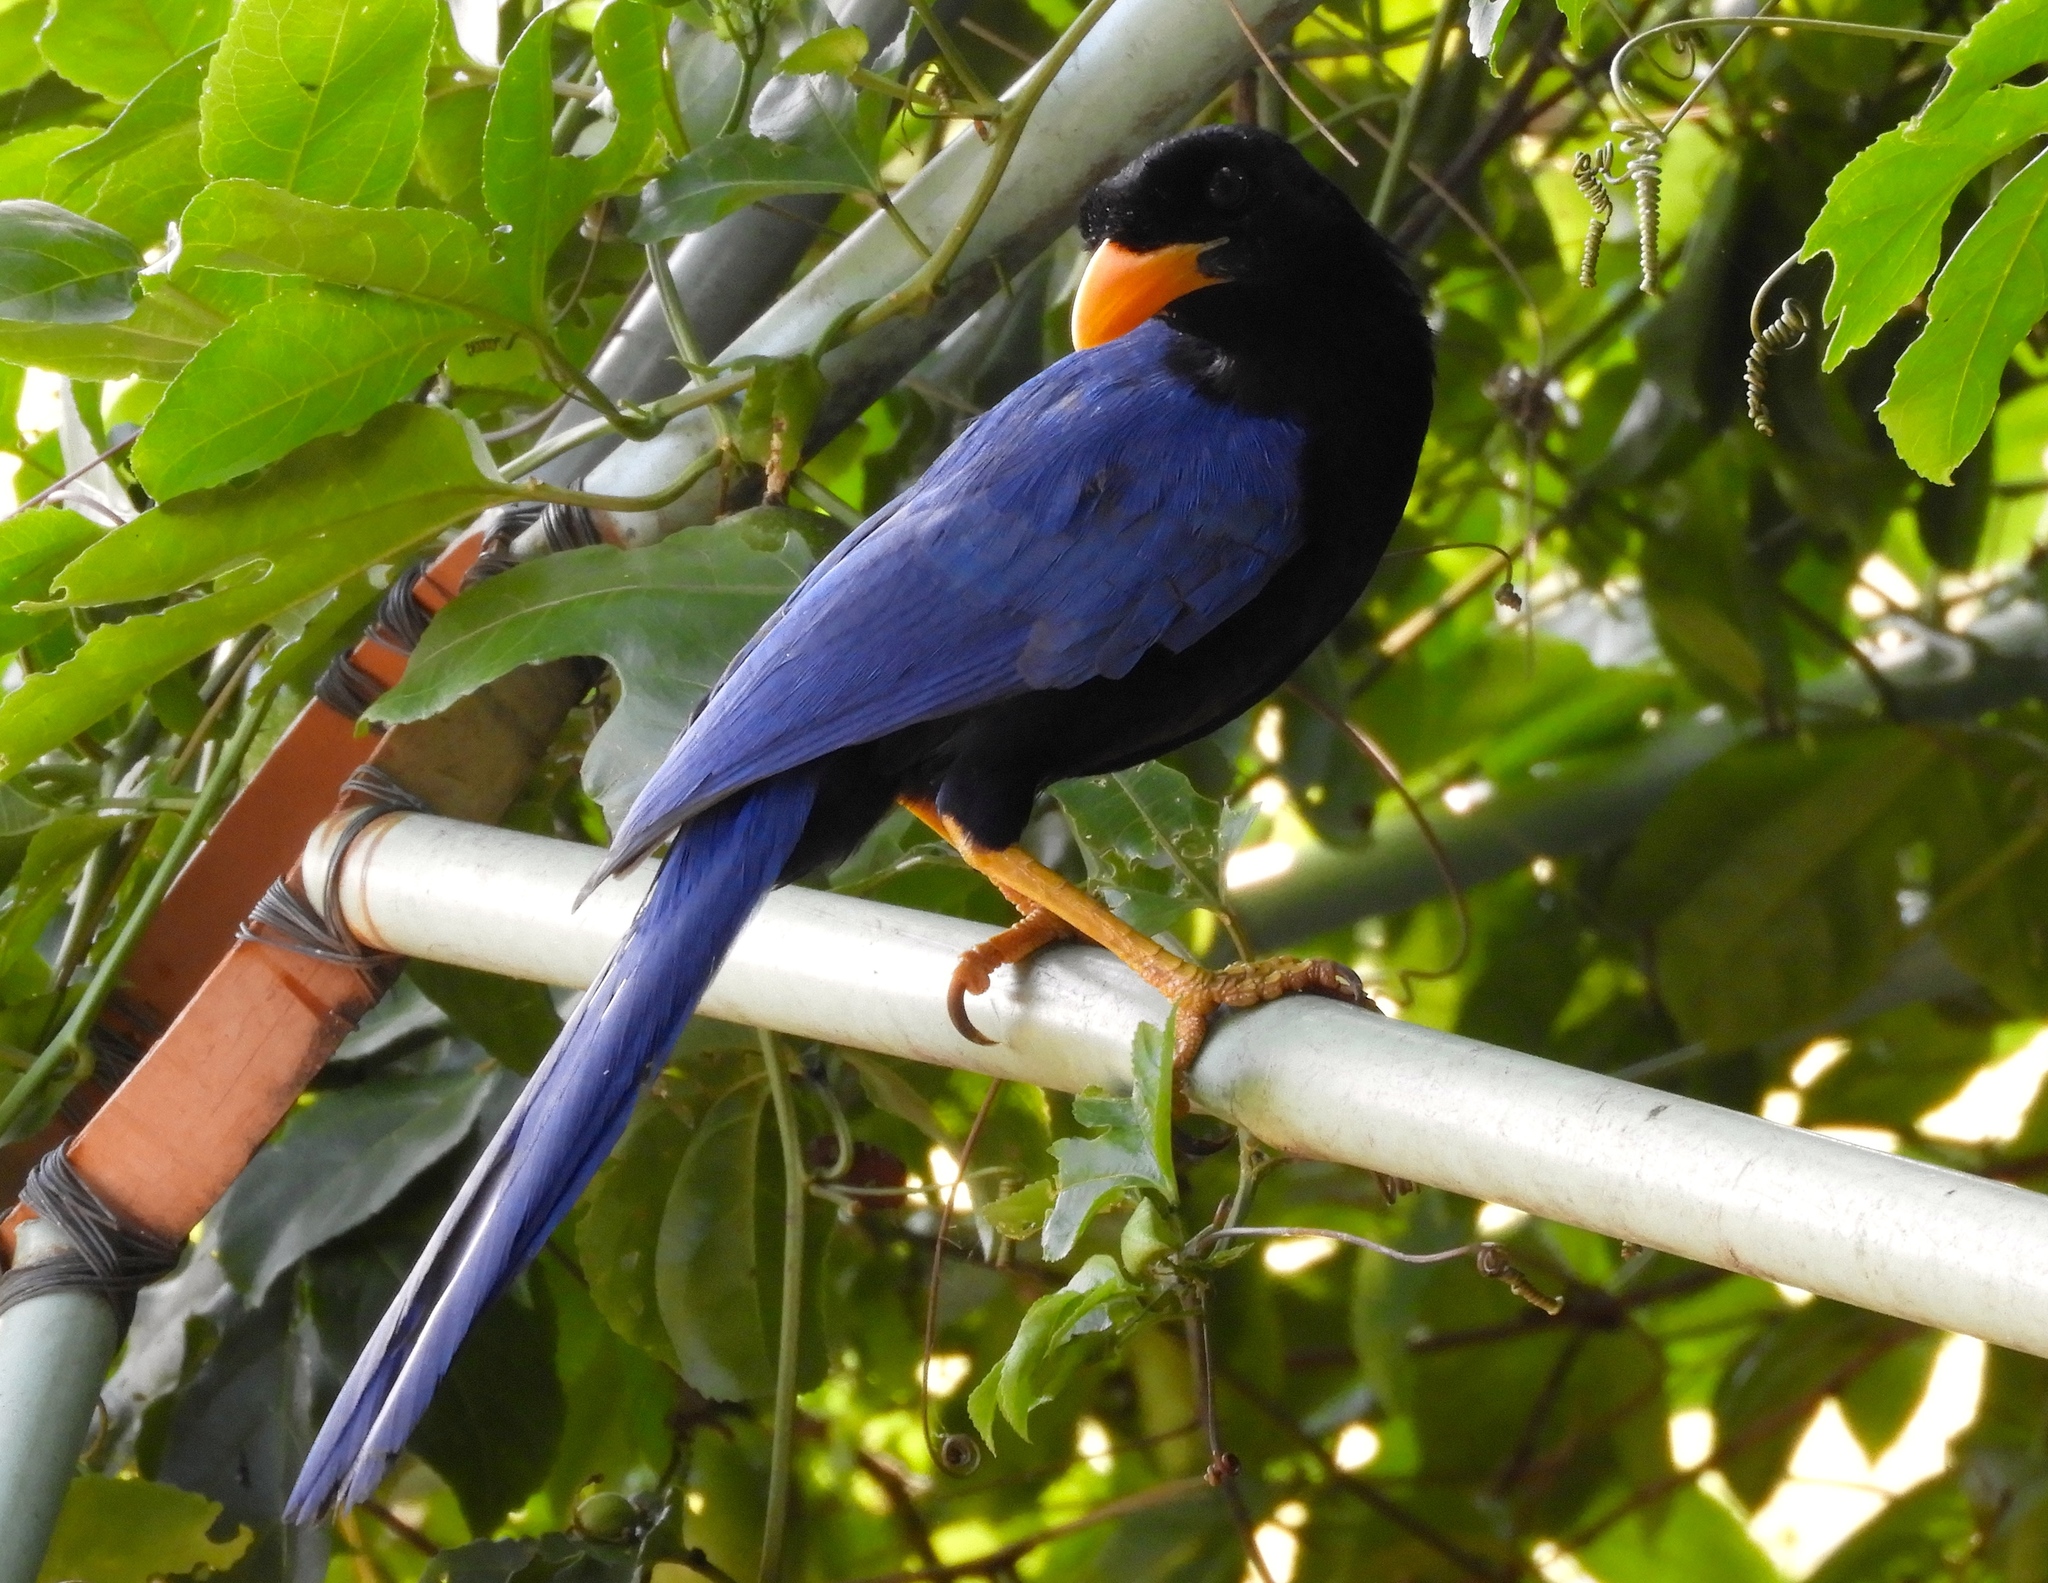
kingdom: Animalia
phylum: Chordata
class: Aves
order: Passeriformes
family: Corvidae
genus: Cyanocorax
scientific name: Cyanocorax beecheii
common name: Purplish-backed jay
